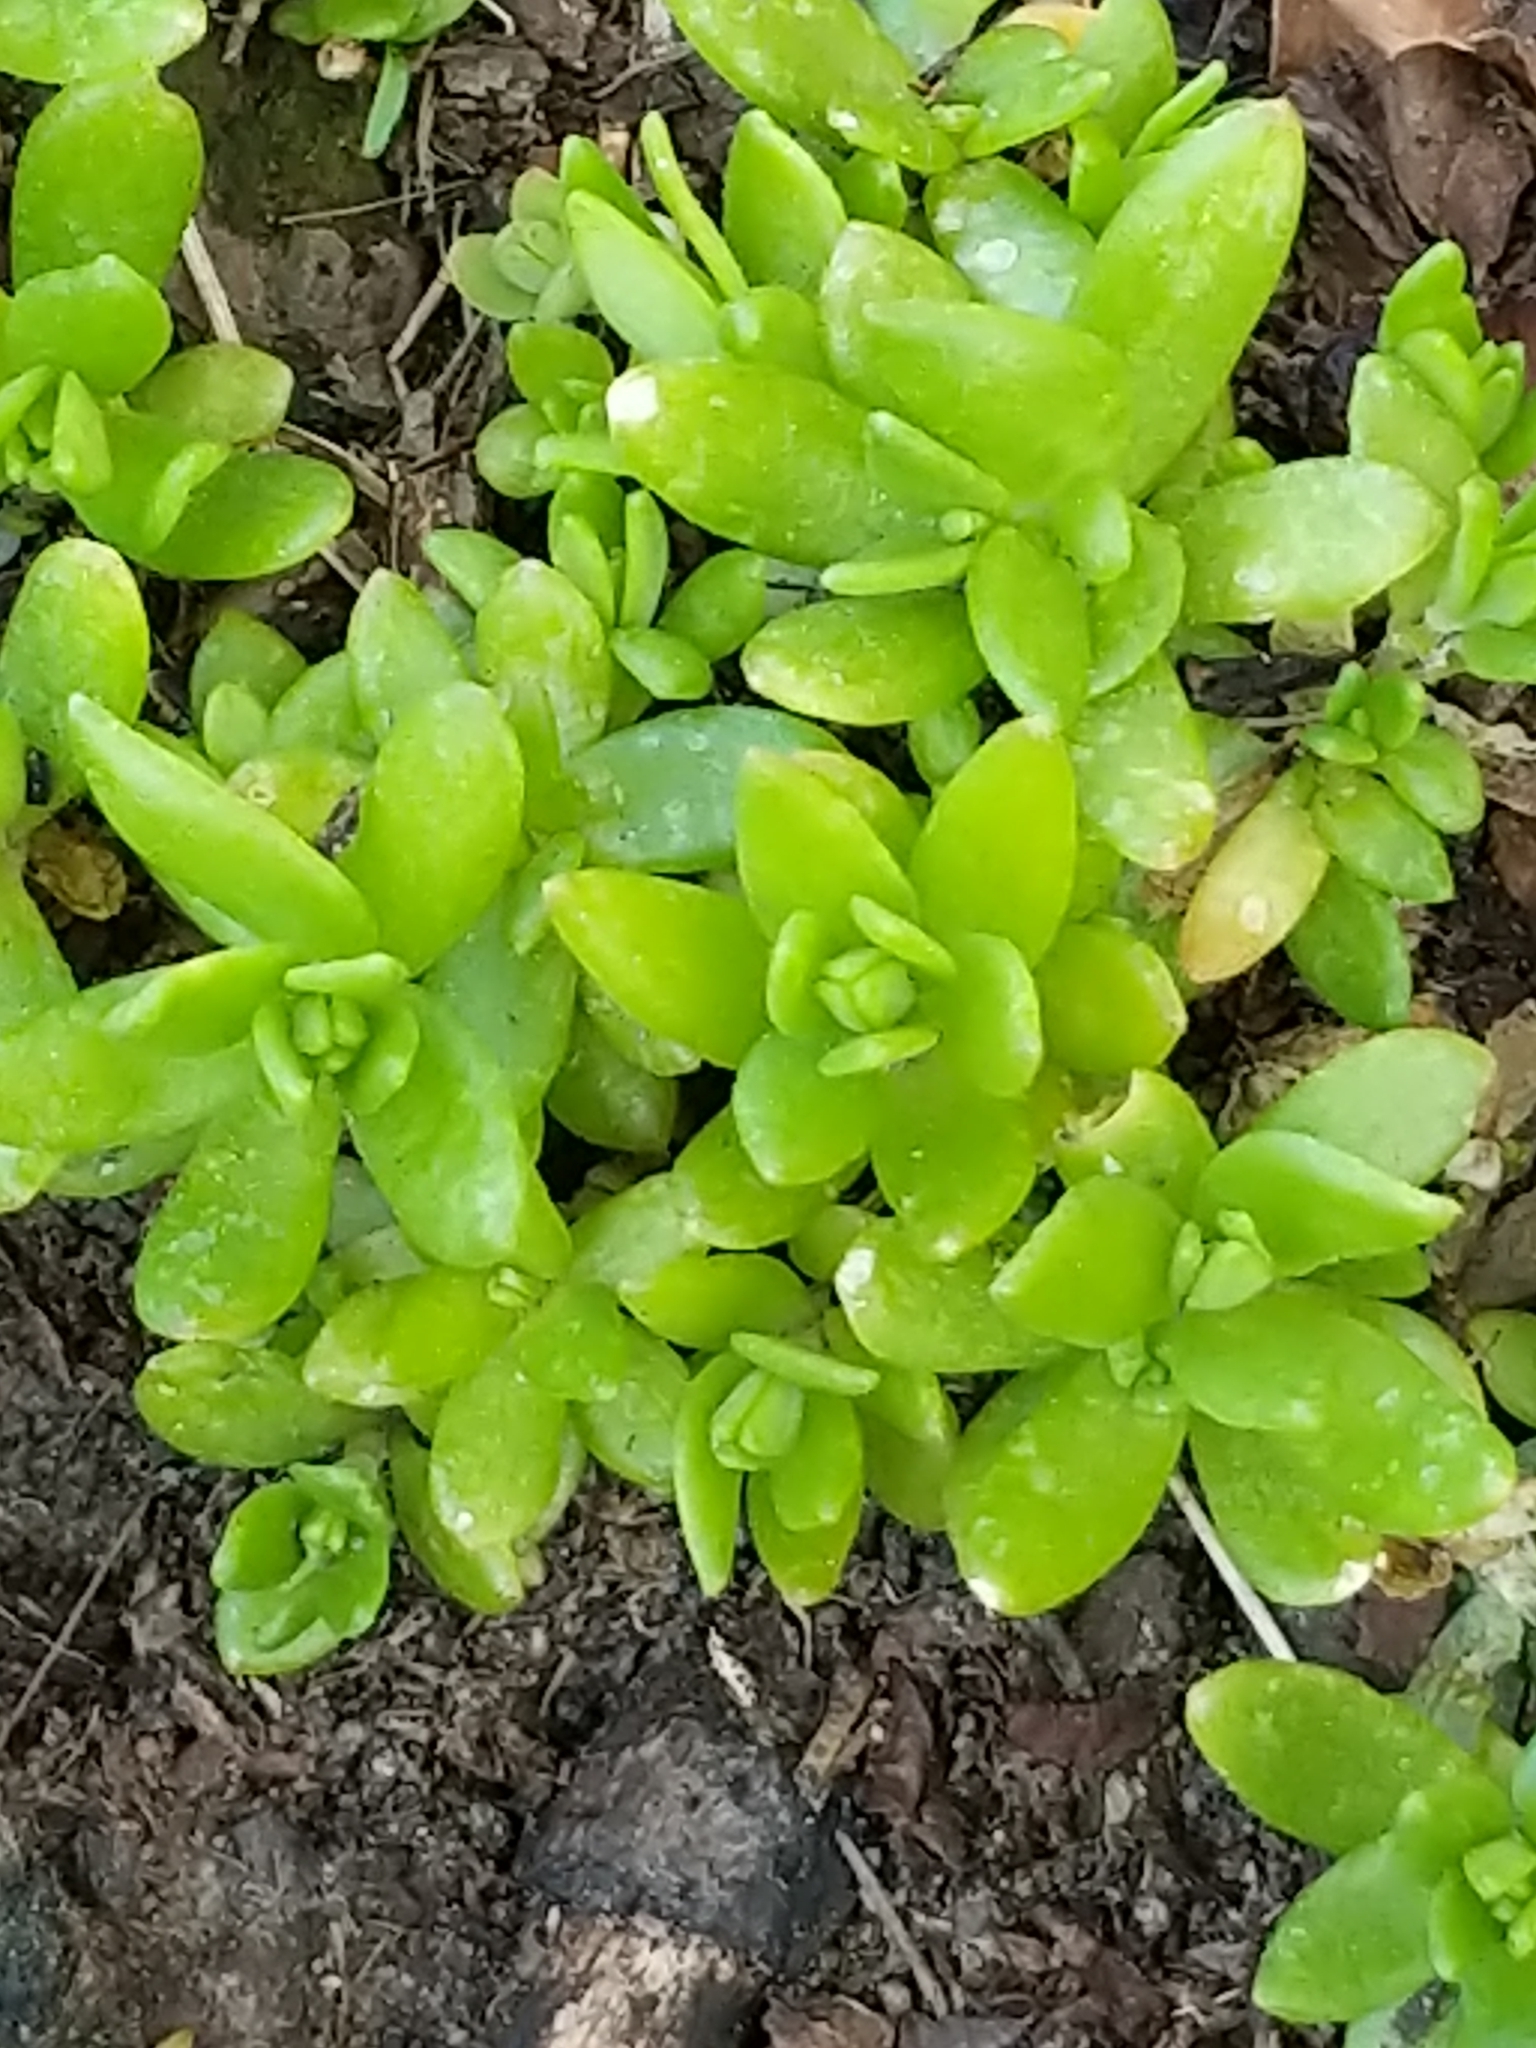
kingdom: Plantae
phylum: Tracheophyta
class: Magnoliopsida
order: Saxifragales
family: Crassulaceae
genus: Sedum
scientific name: Sedum sarmentosum
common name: Stringy stonecrop
